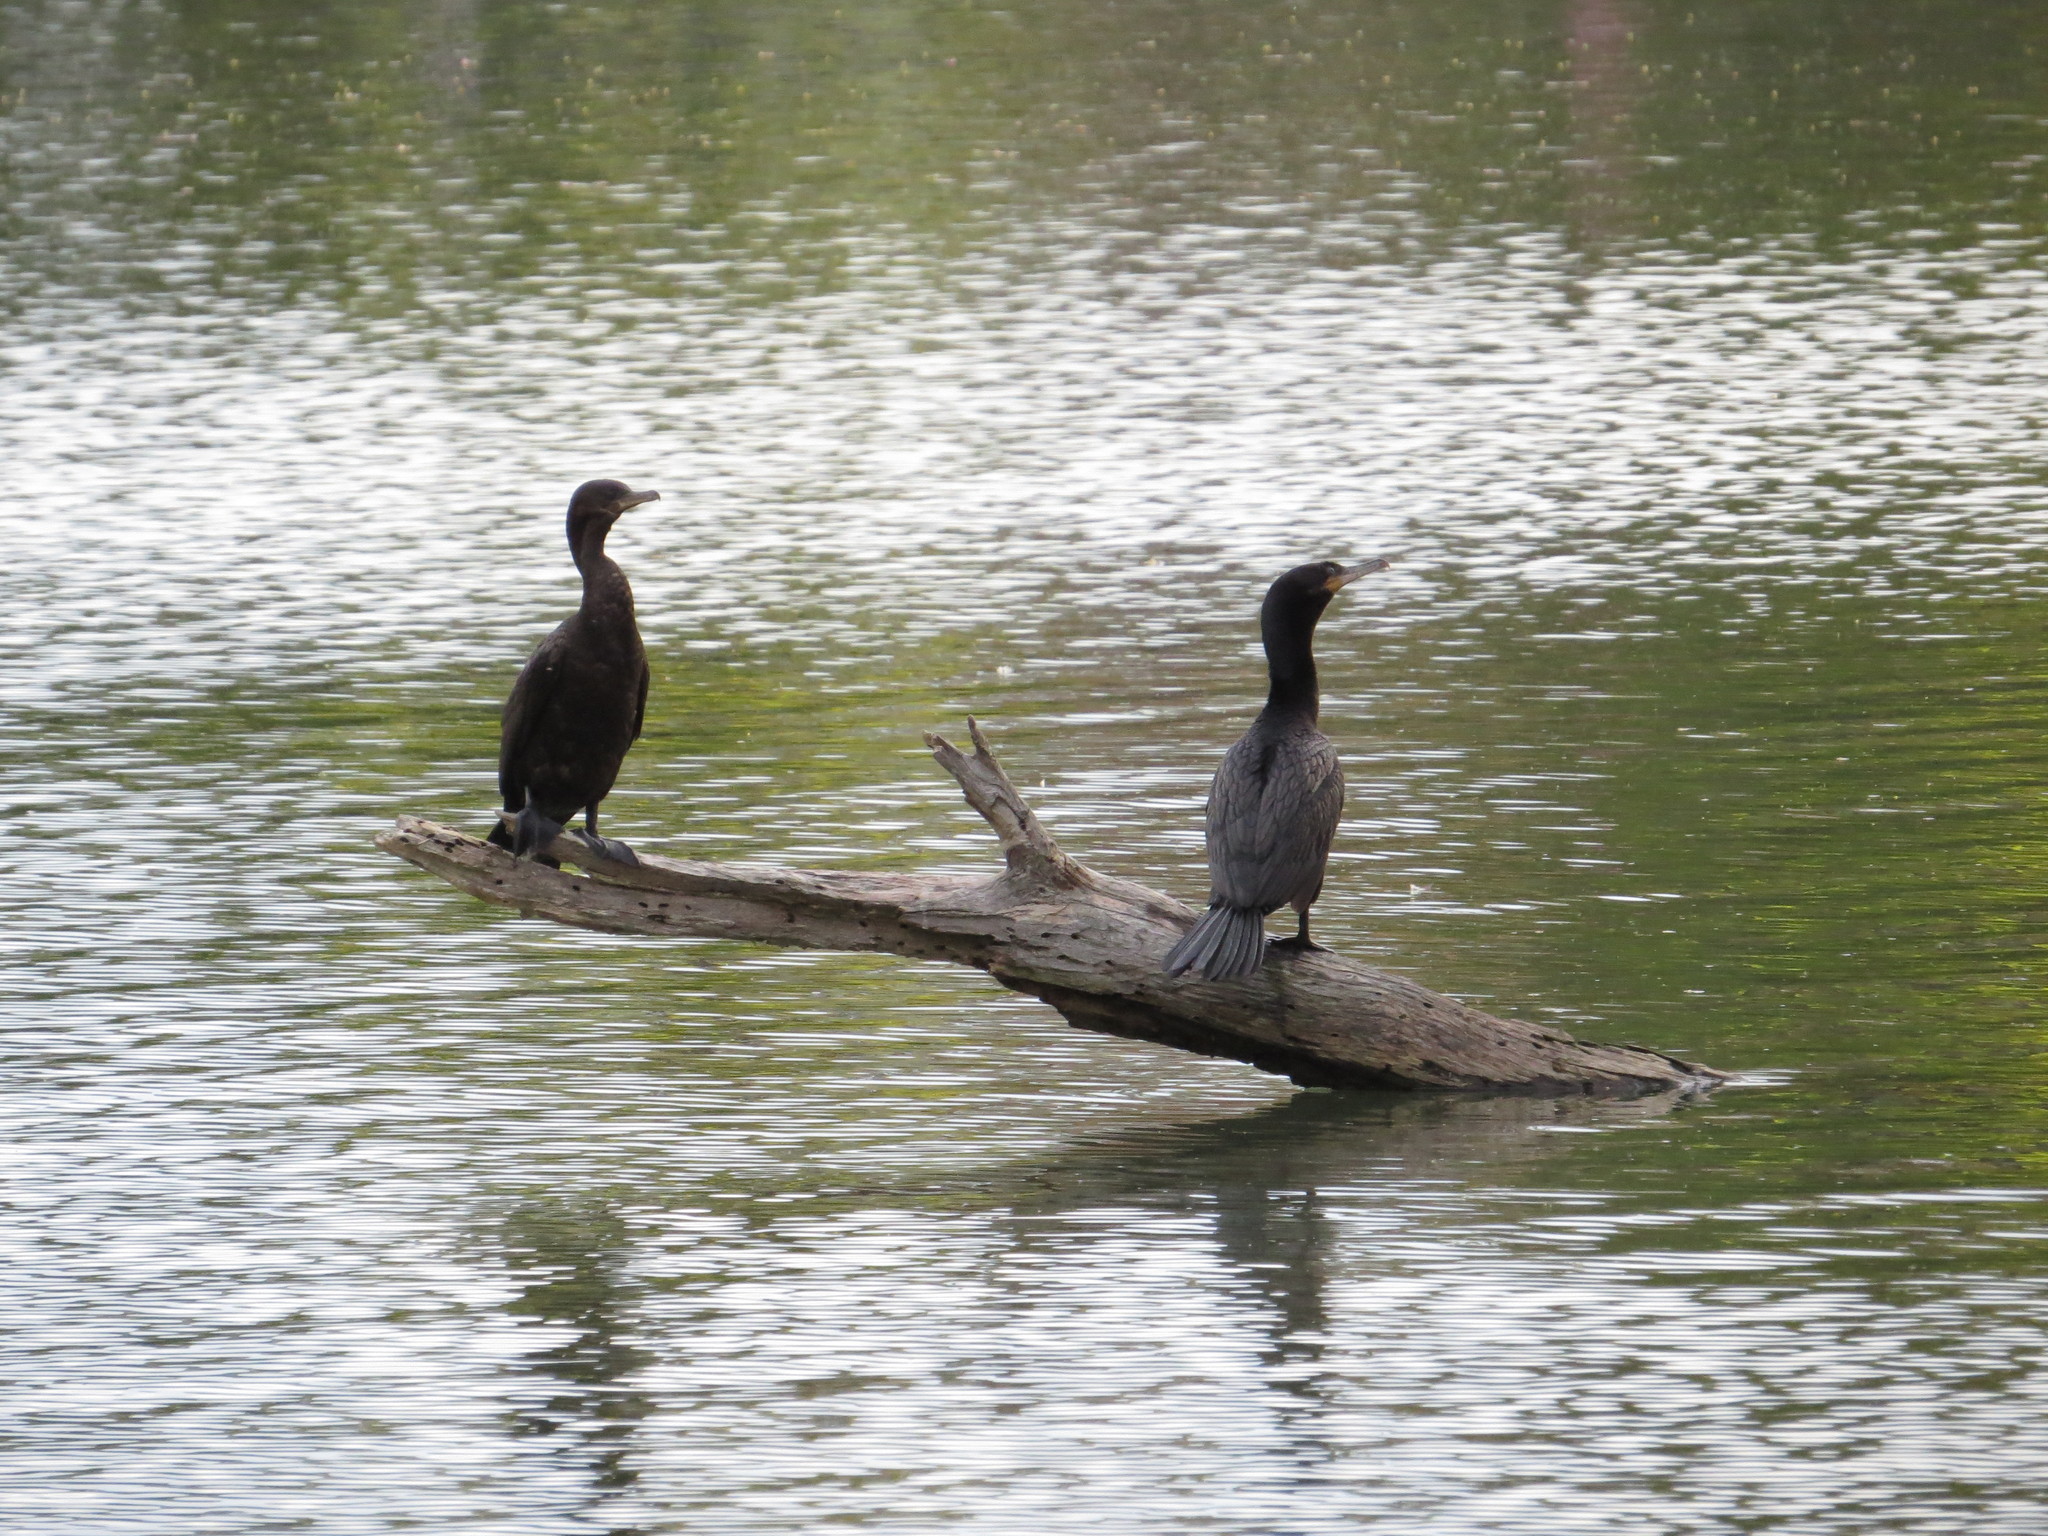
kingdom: Animalia
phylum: Chordata
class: Aves
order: Suliformes
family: Phalacrocoracidae
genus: Phalacrocorax
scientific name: Phalacrocorax brasilianus
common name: Neotropic cormorant
